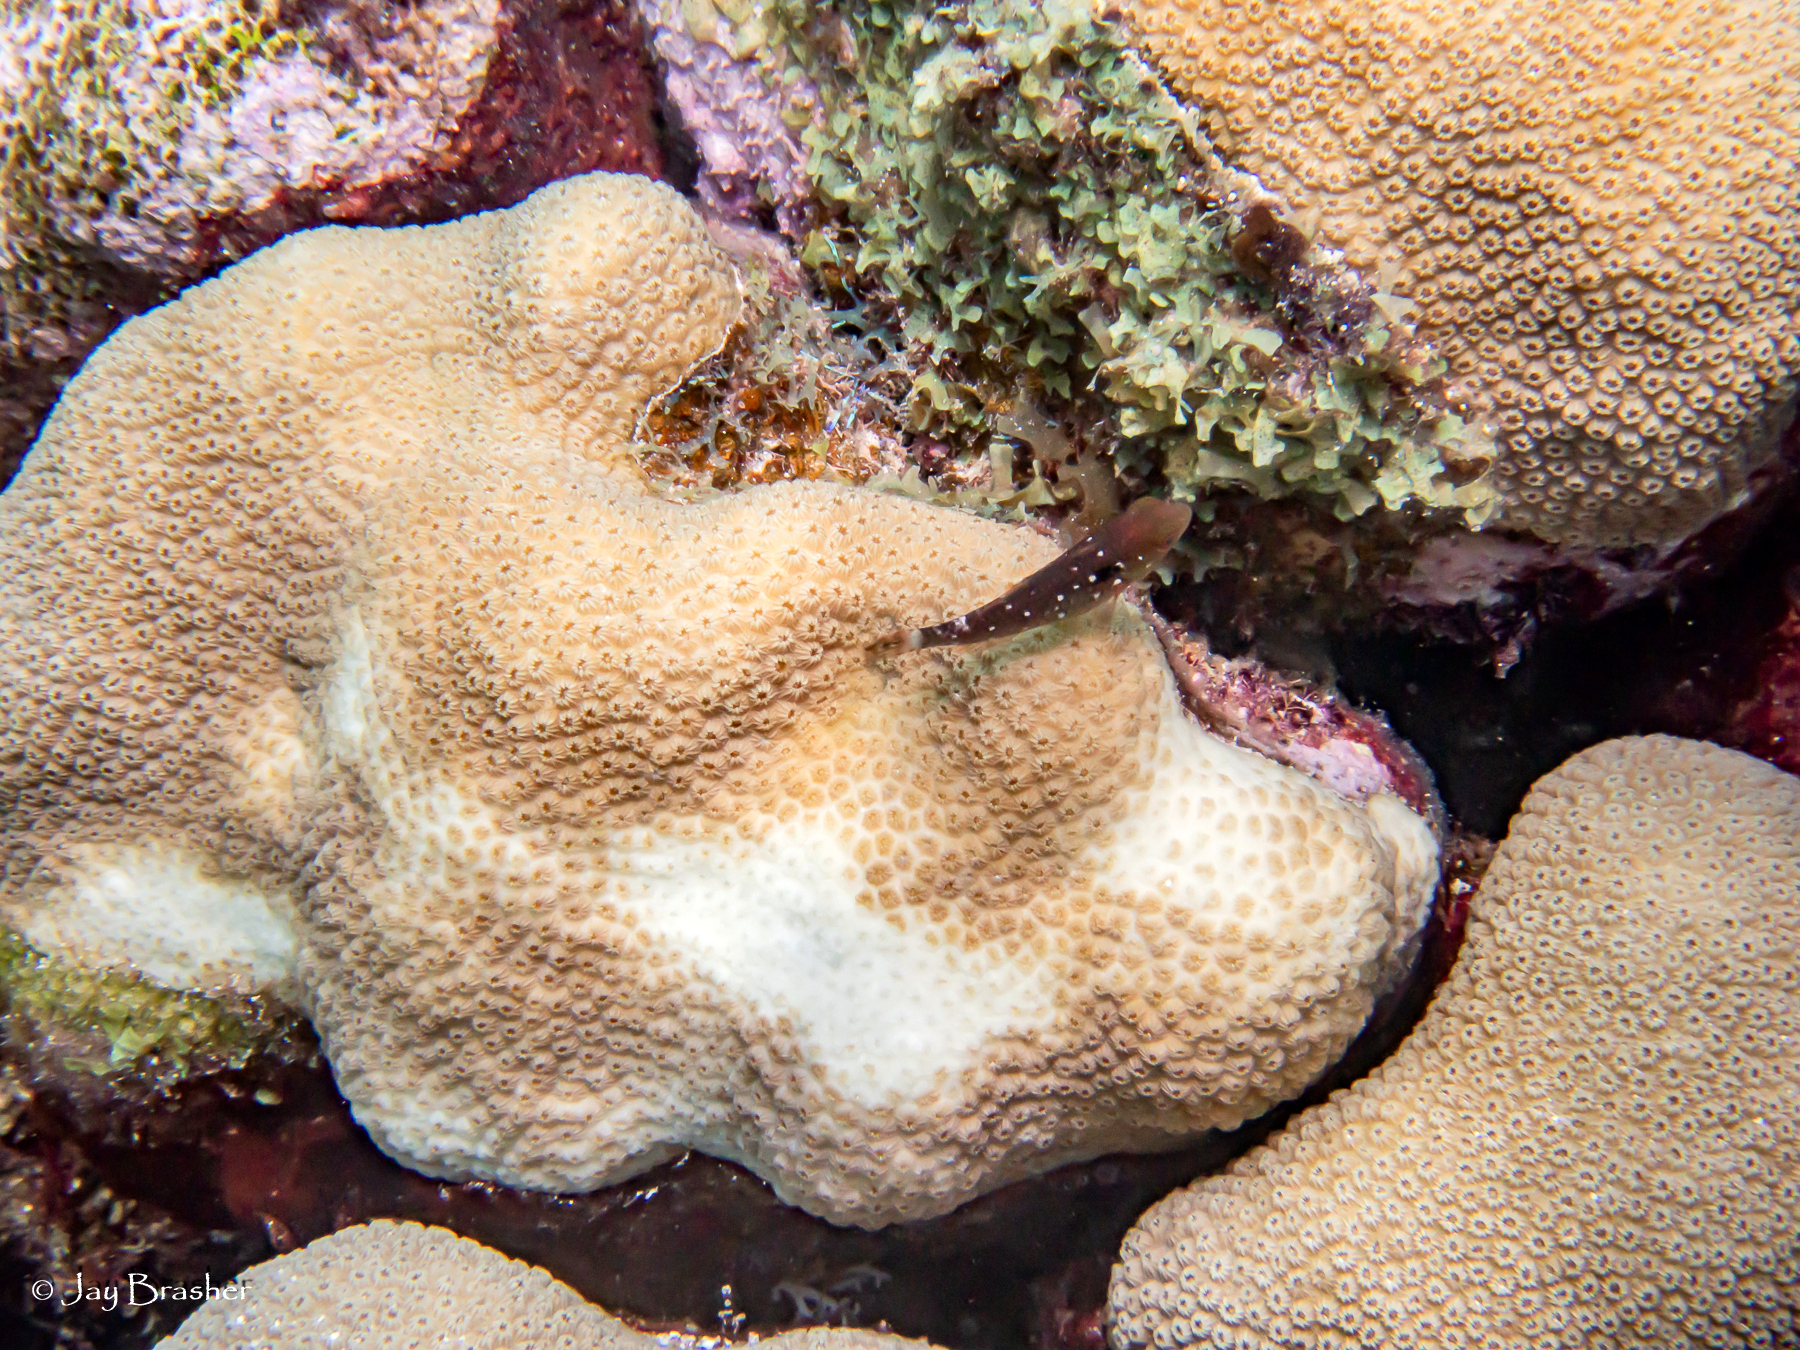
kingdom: Animalia
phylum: Chordata
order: Perciformes
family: Scaridae
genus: Sparisoma
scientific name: Sparisoma viride
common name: Stoplight parrotfish
